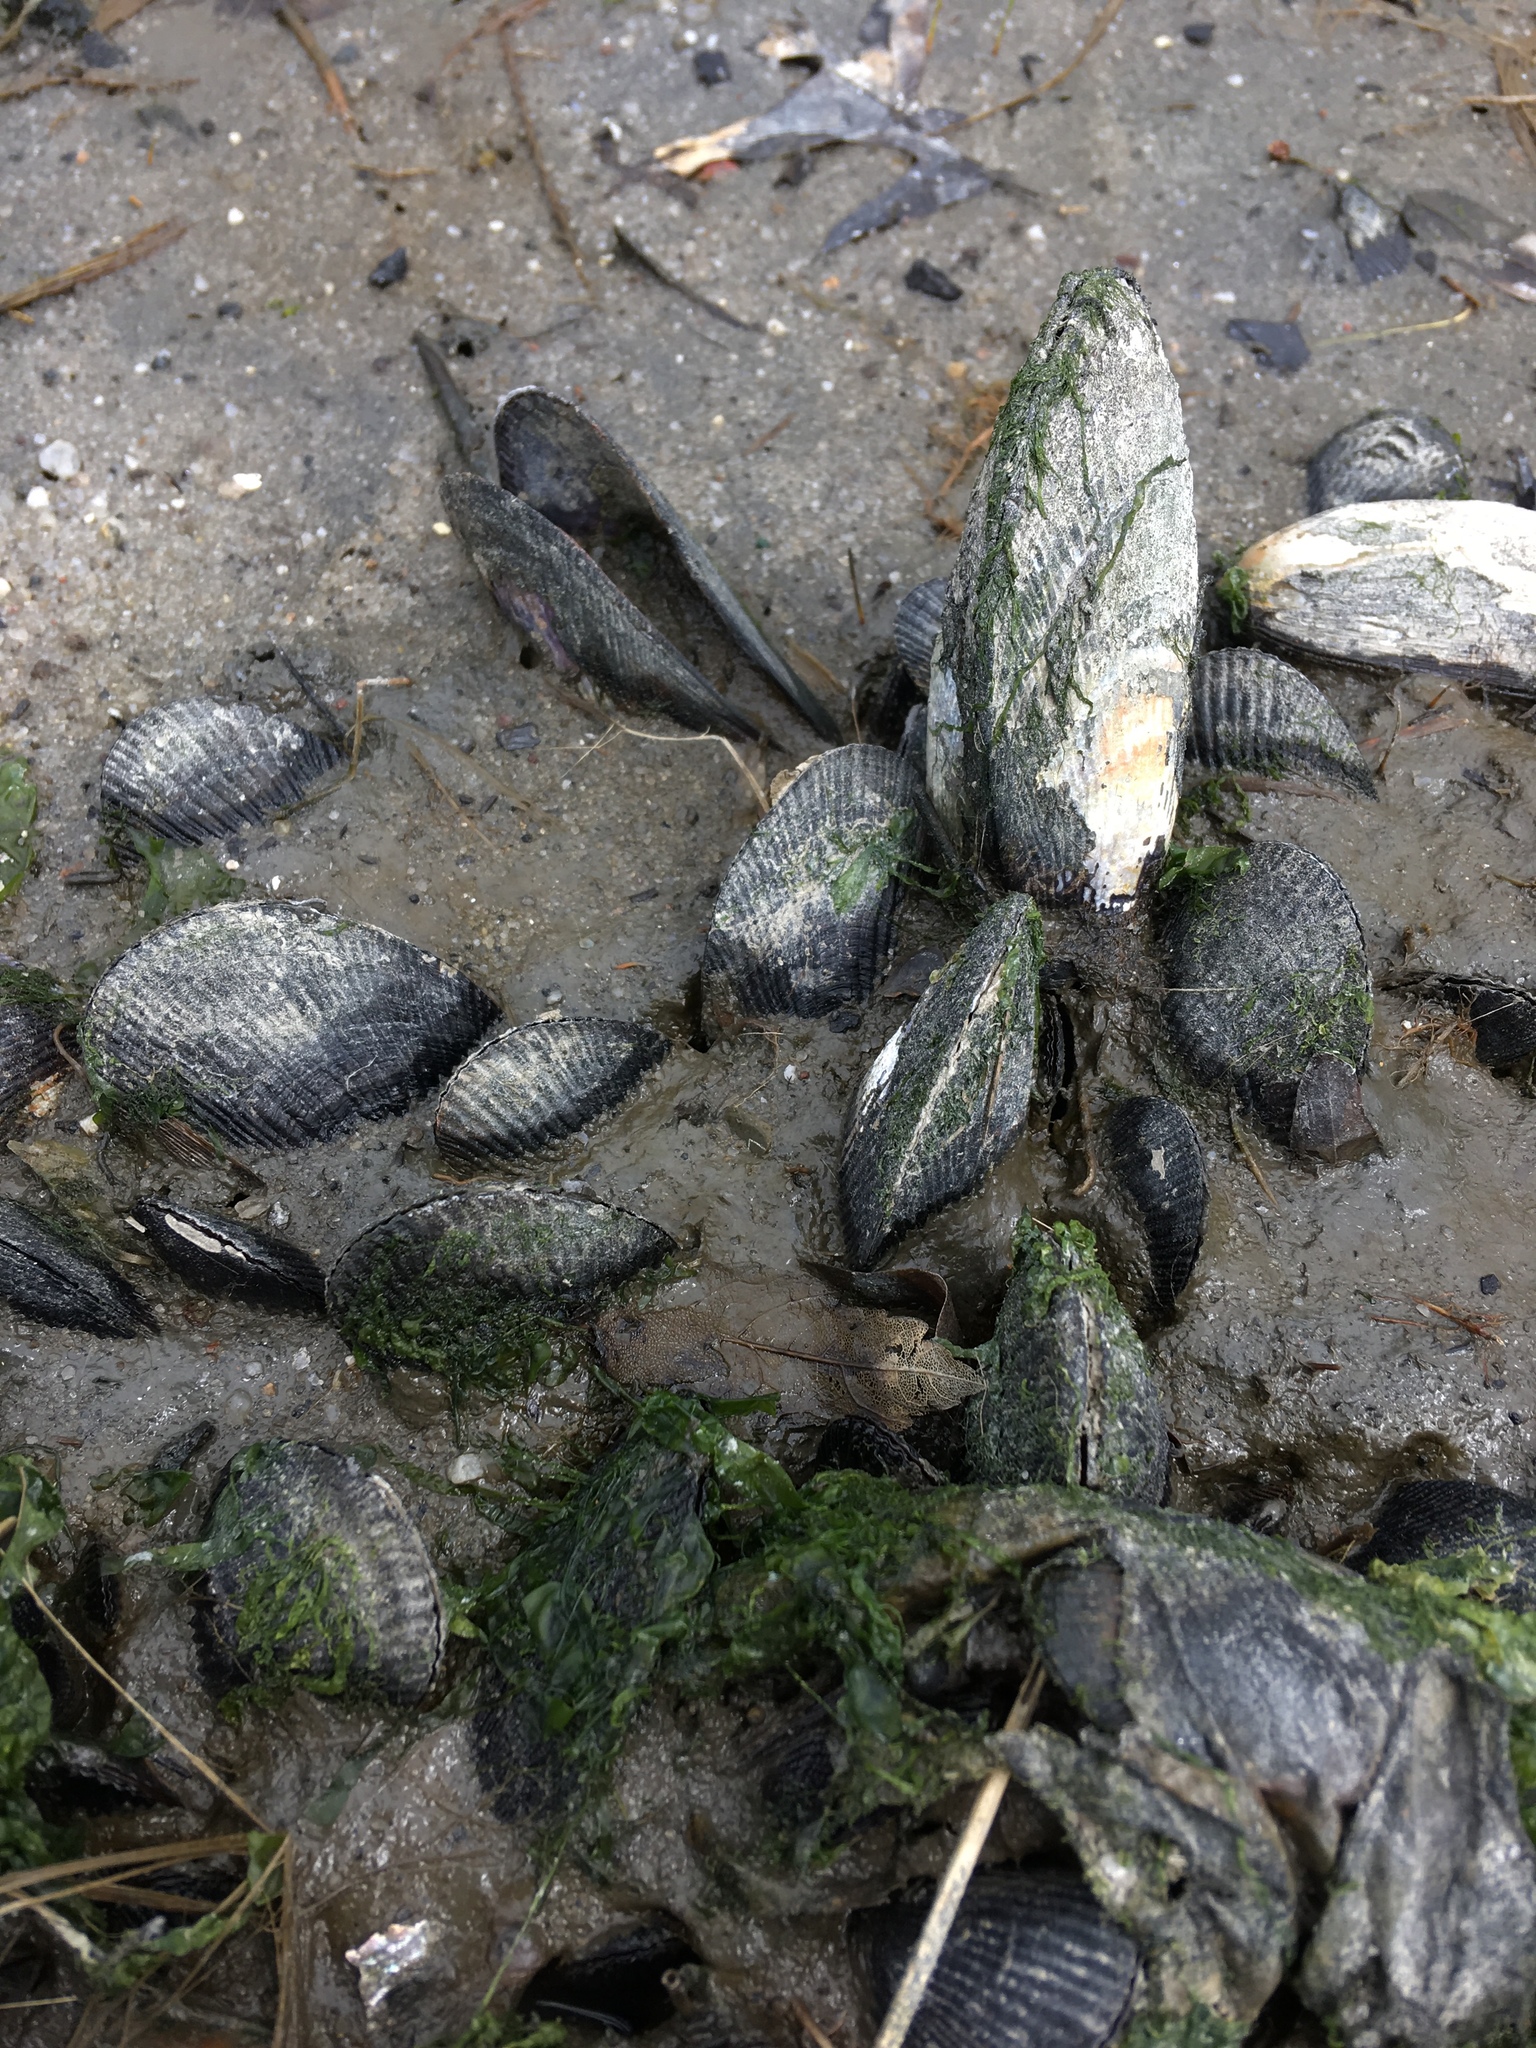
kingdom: Animalia
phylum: Mollusca
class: Bivalvia
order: Mytilida
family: Mytilidae
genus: Geukensia
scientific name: Geukensia demissa
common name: Ribbed mussel
